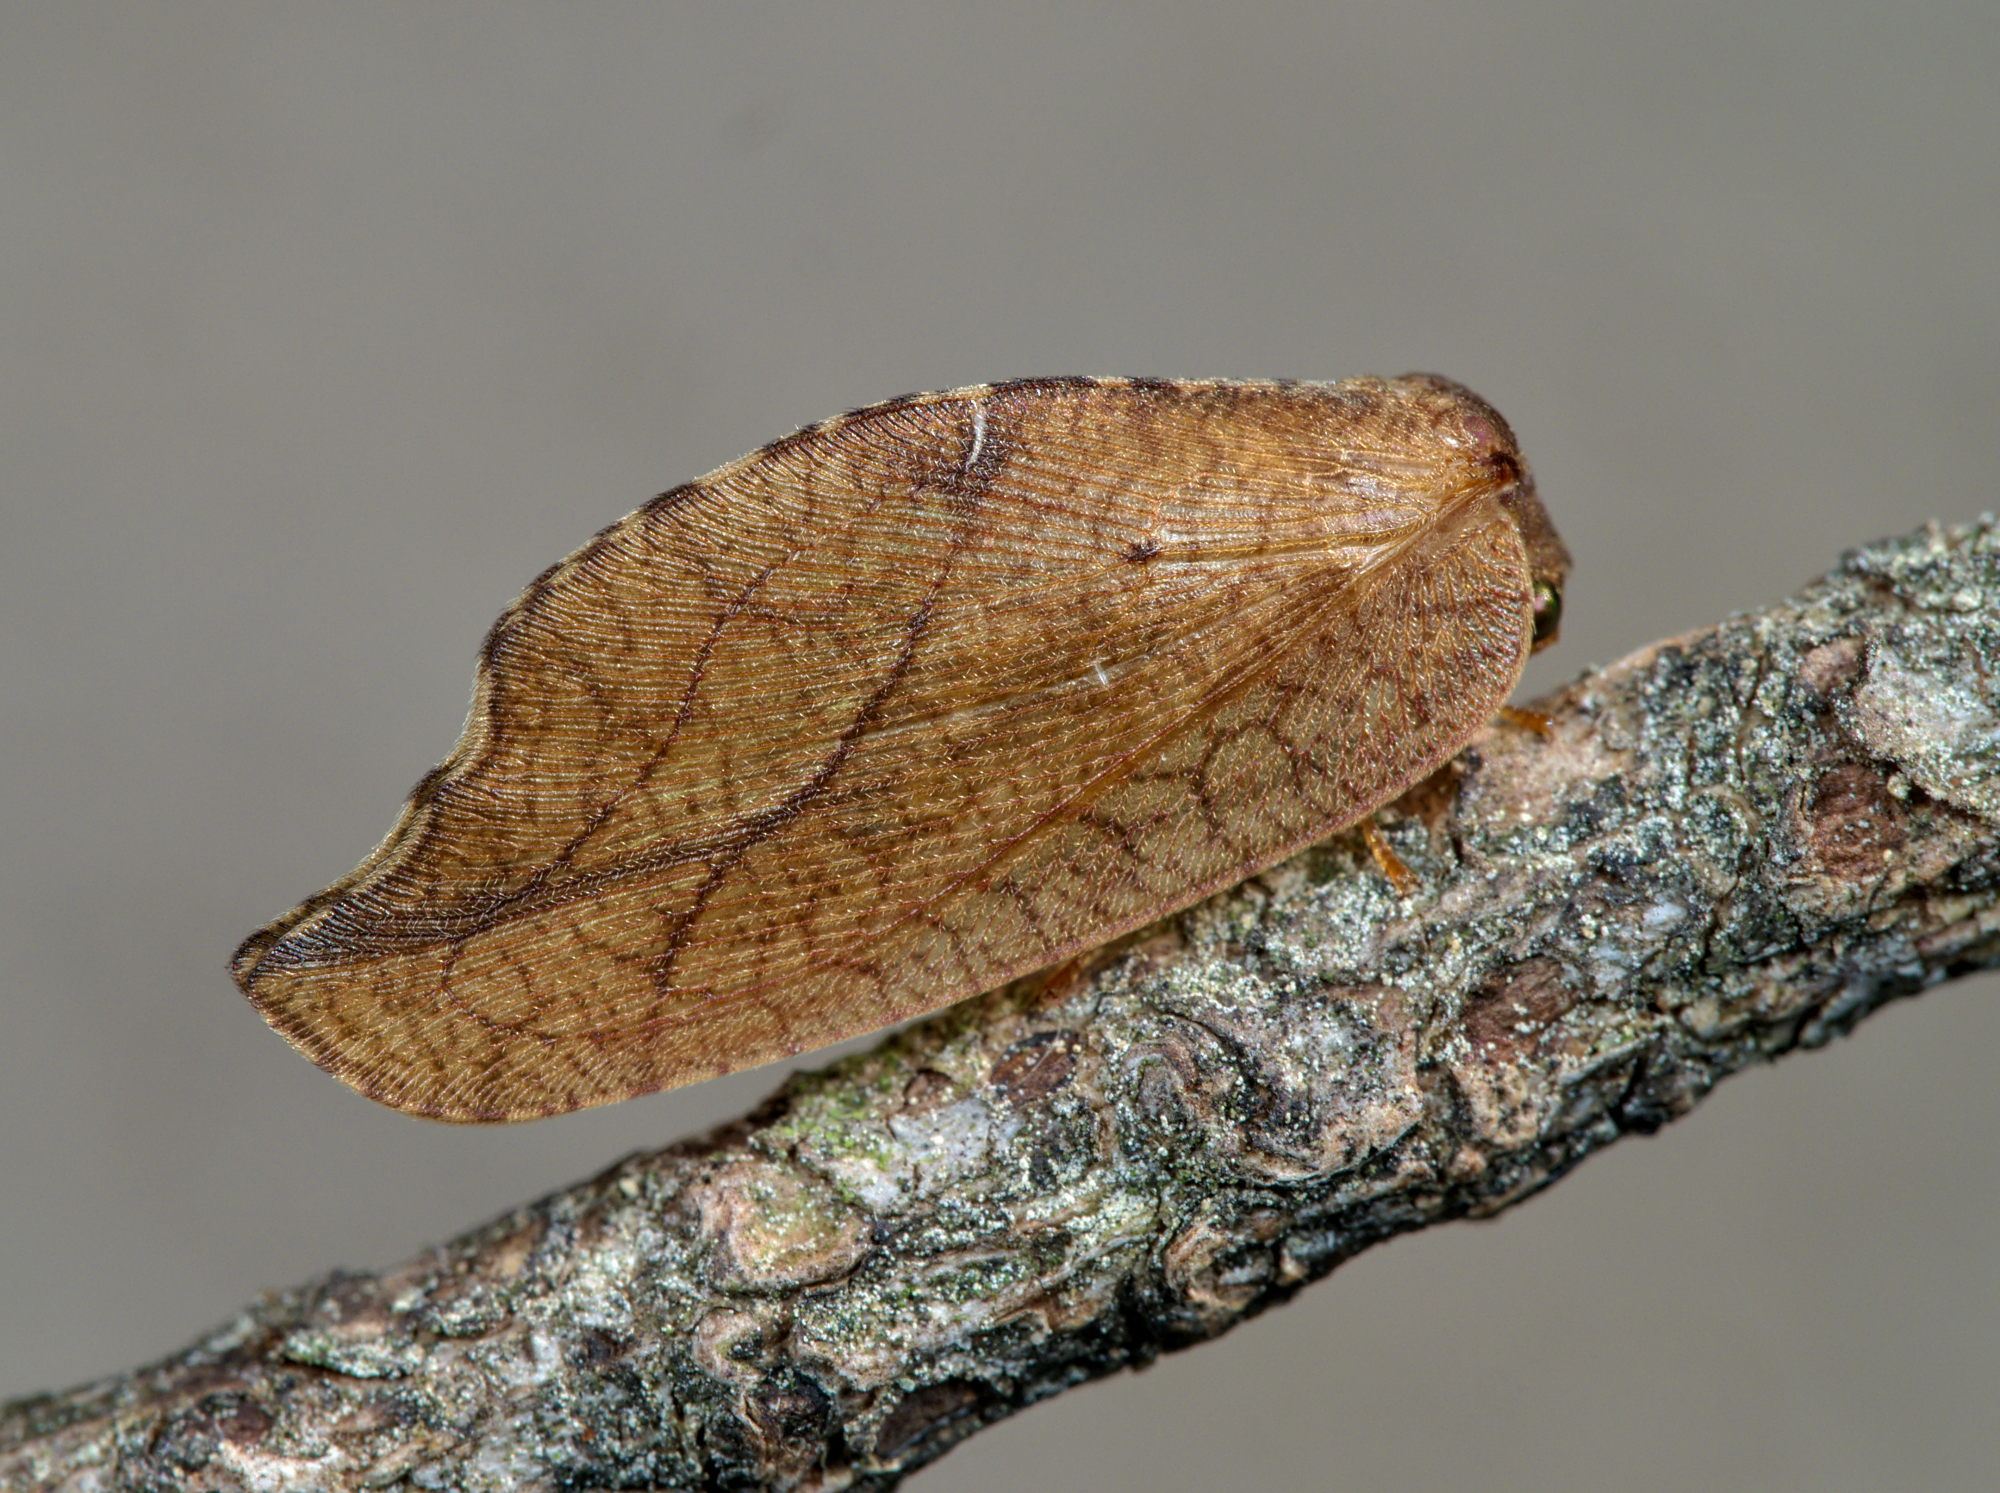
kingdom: Animalia
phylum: Arthropoda
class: Insecta
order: Neuroptera
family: Hemerobiidae
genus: Drepanepteryx
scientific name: Drepanepteryx phalaenoides
